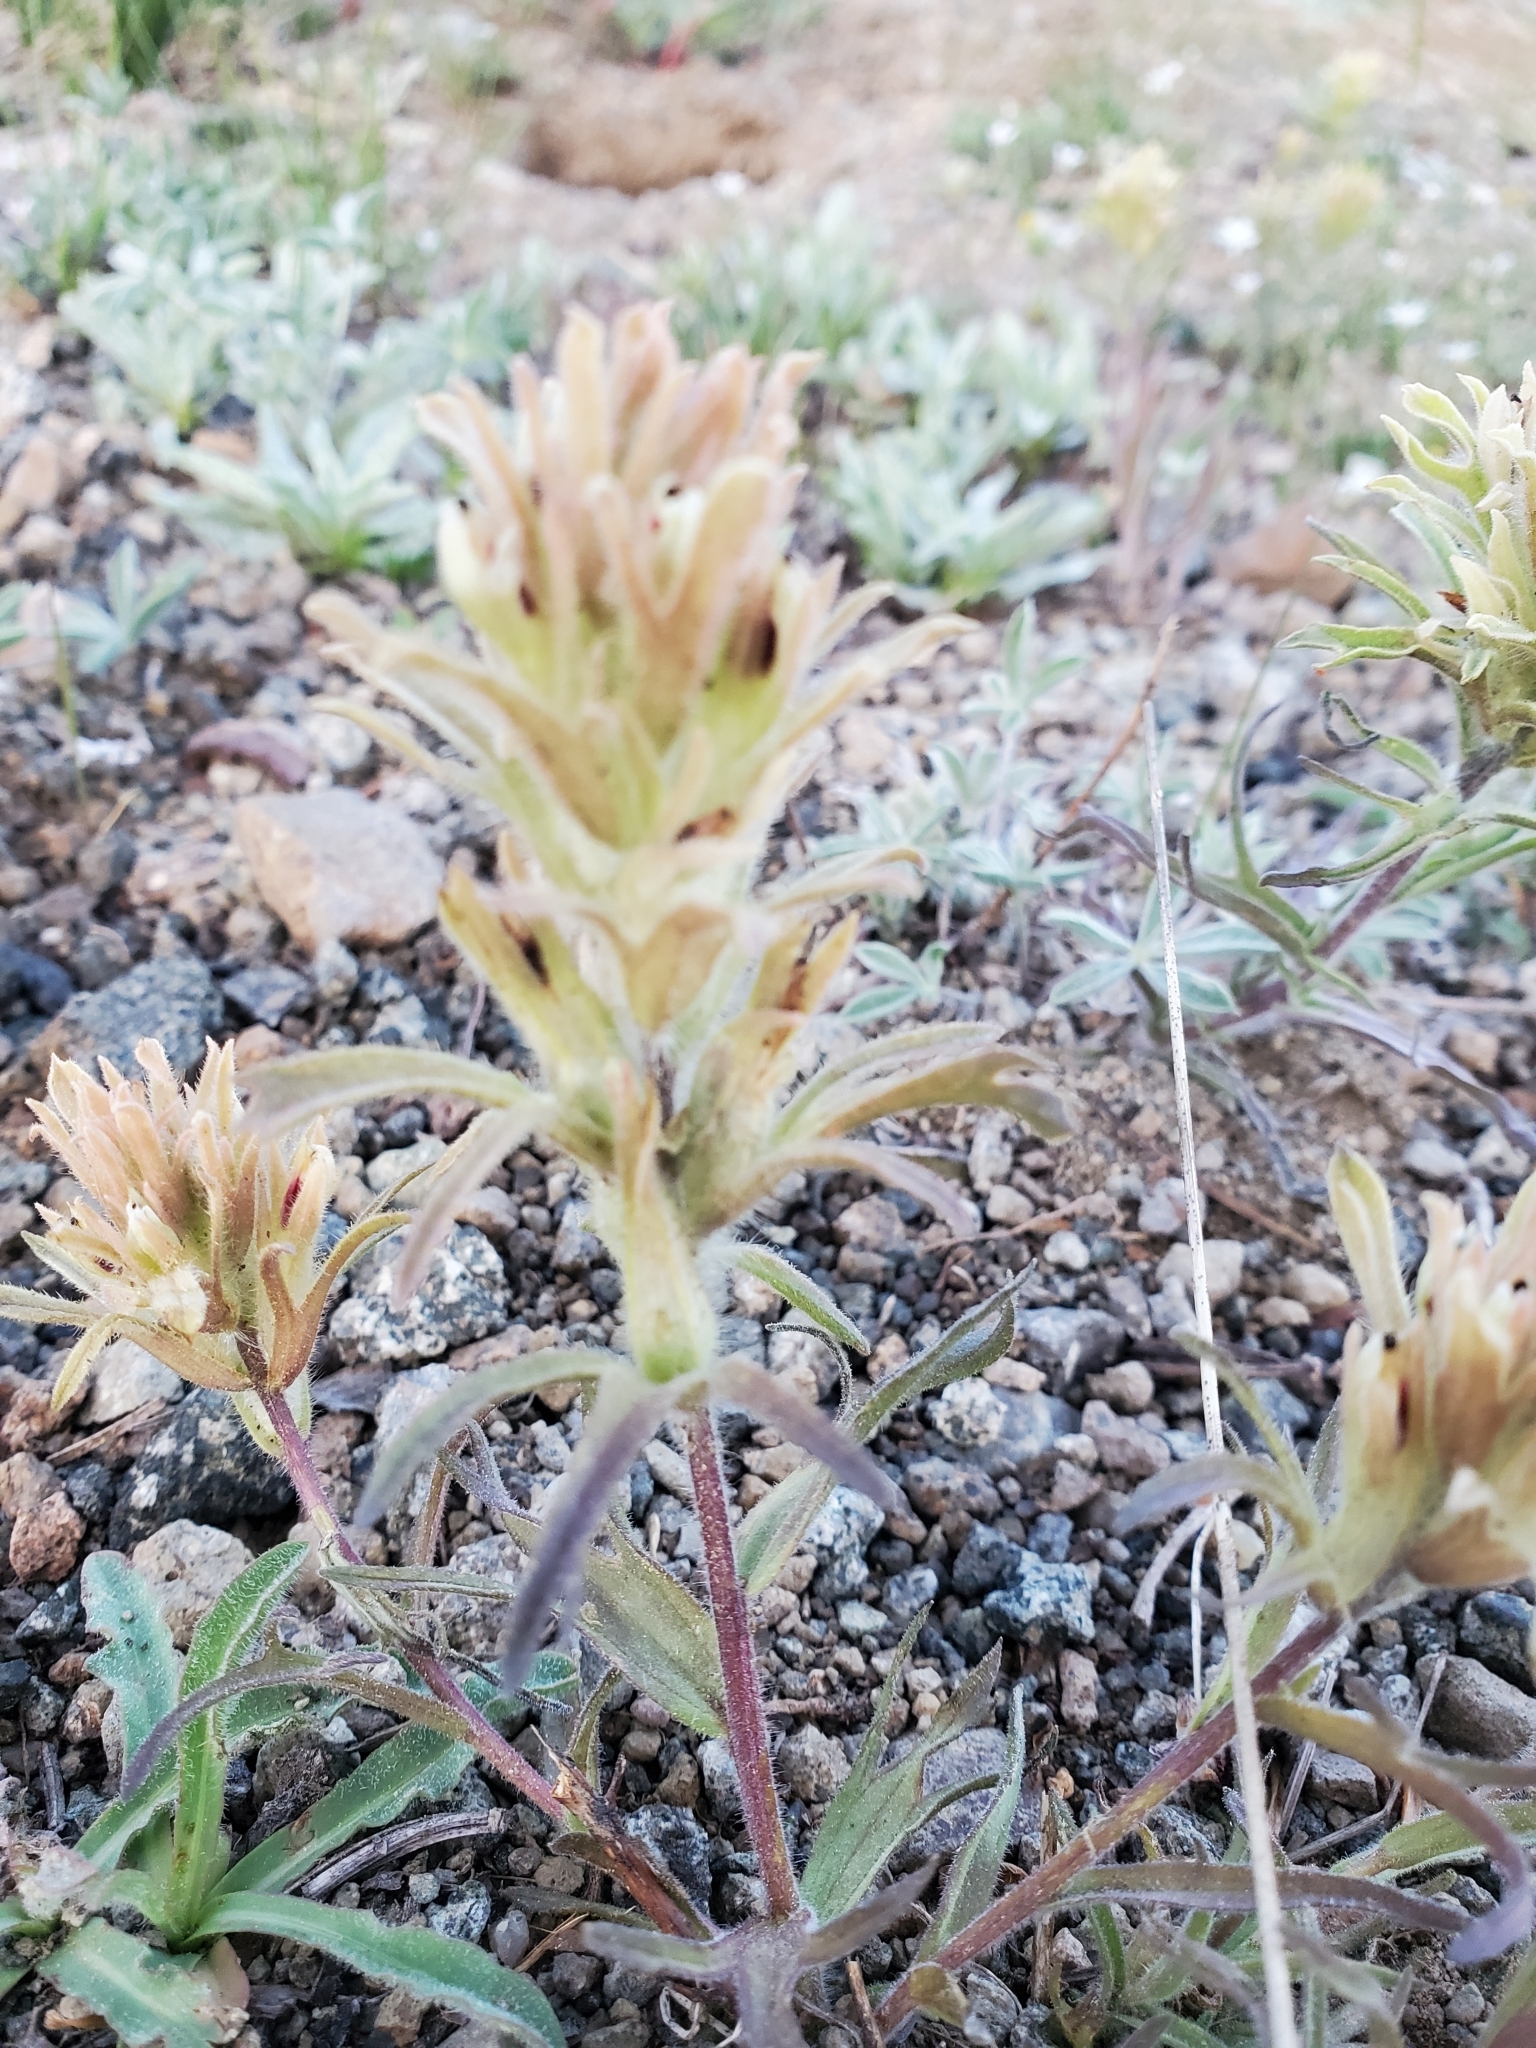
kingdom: Plantae
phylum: Tracheophyta
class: Magnoliopsida
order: Lamiales
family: Orobanchaceae
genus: Castilleja
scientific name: Castilleja nana
